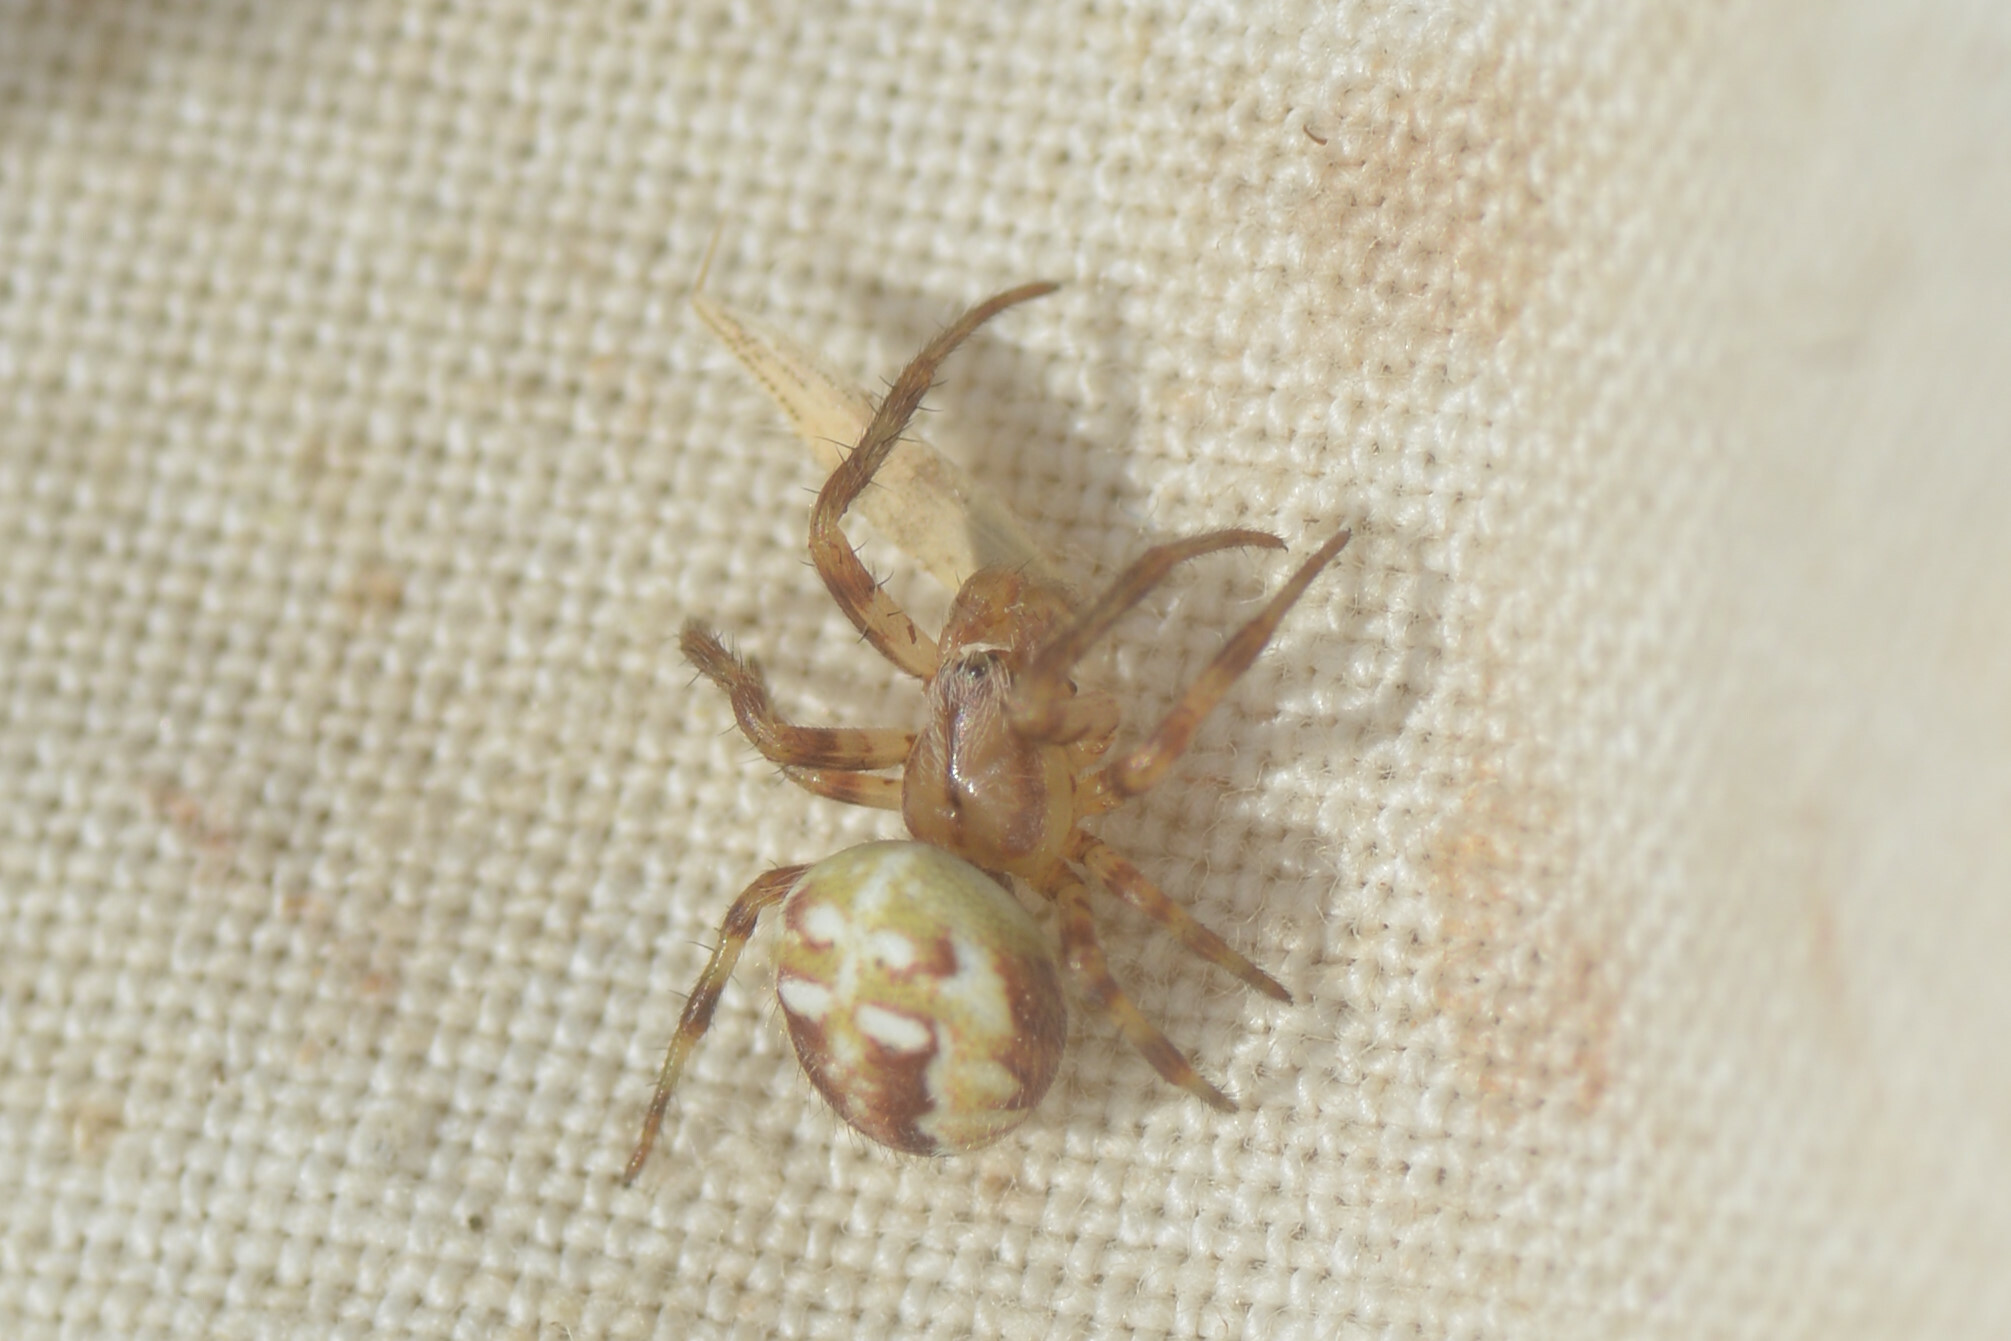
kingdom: Animalia
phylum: Arthropoda
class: Arachnida
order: Araneae
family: Araneidae
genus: Araneus
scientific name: Araneus quadratus
